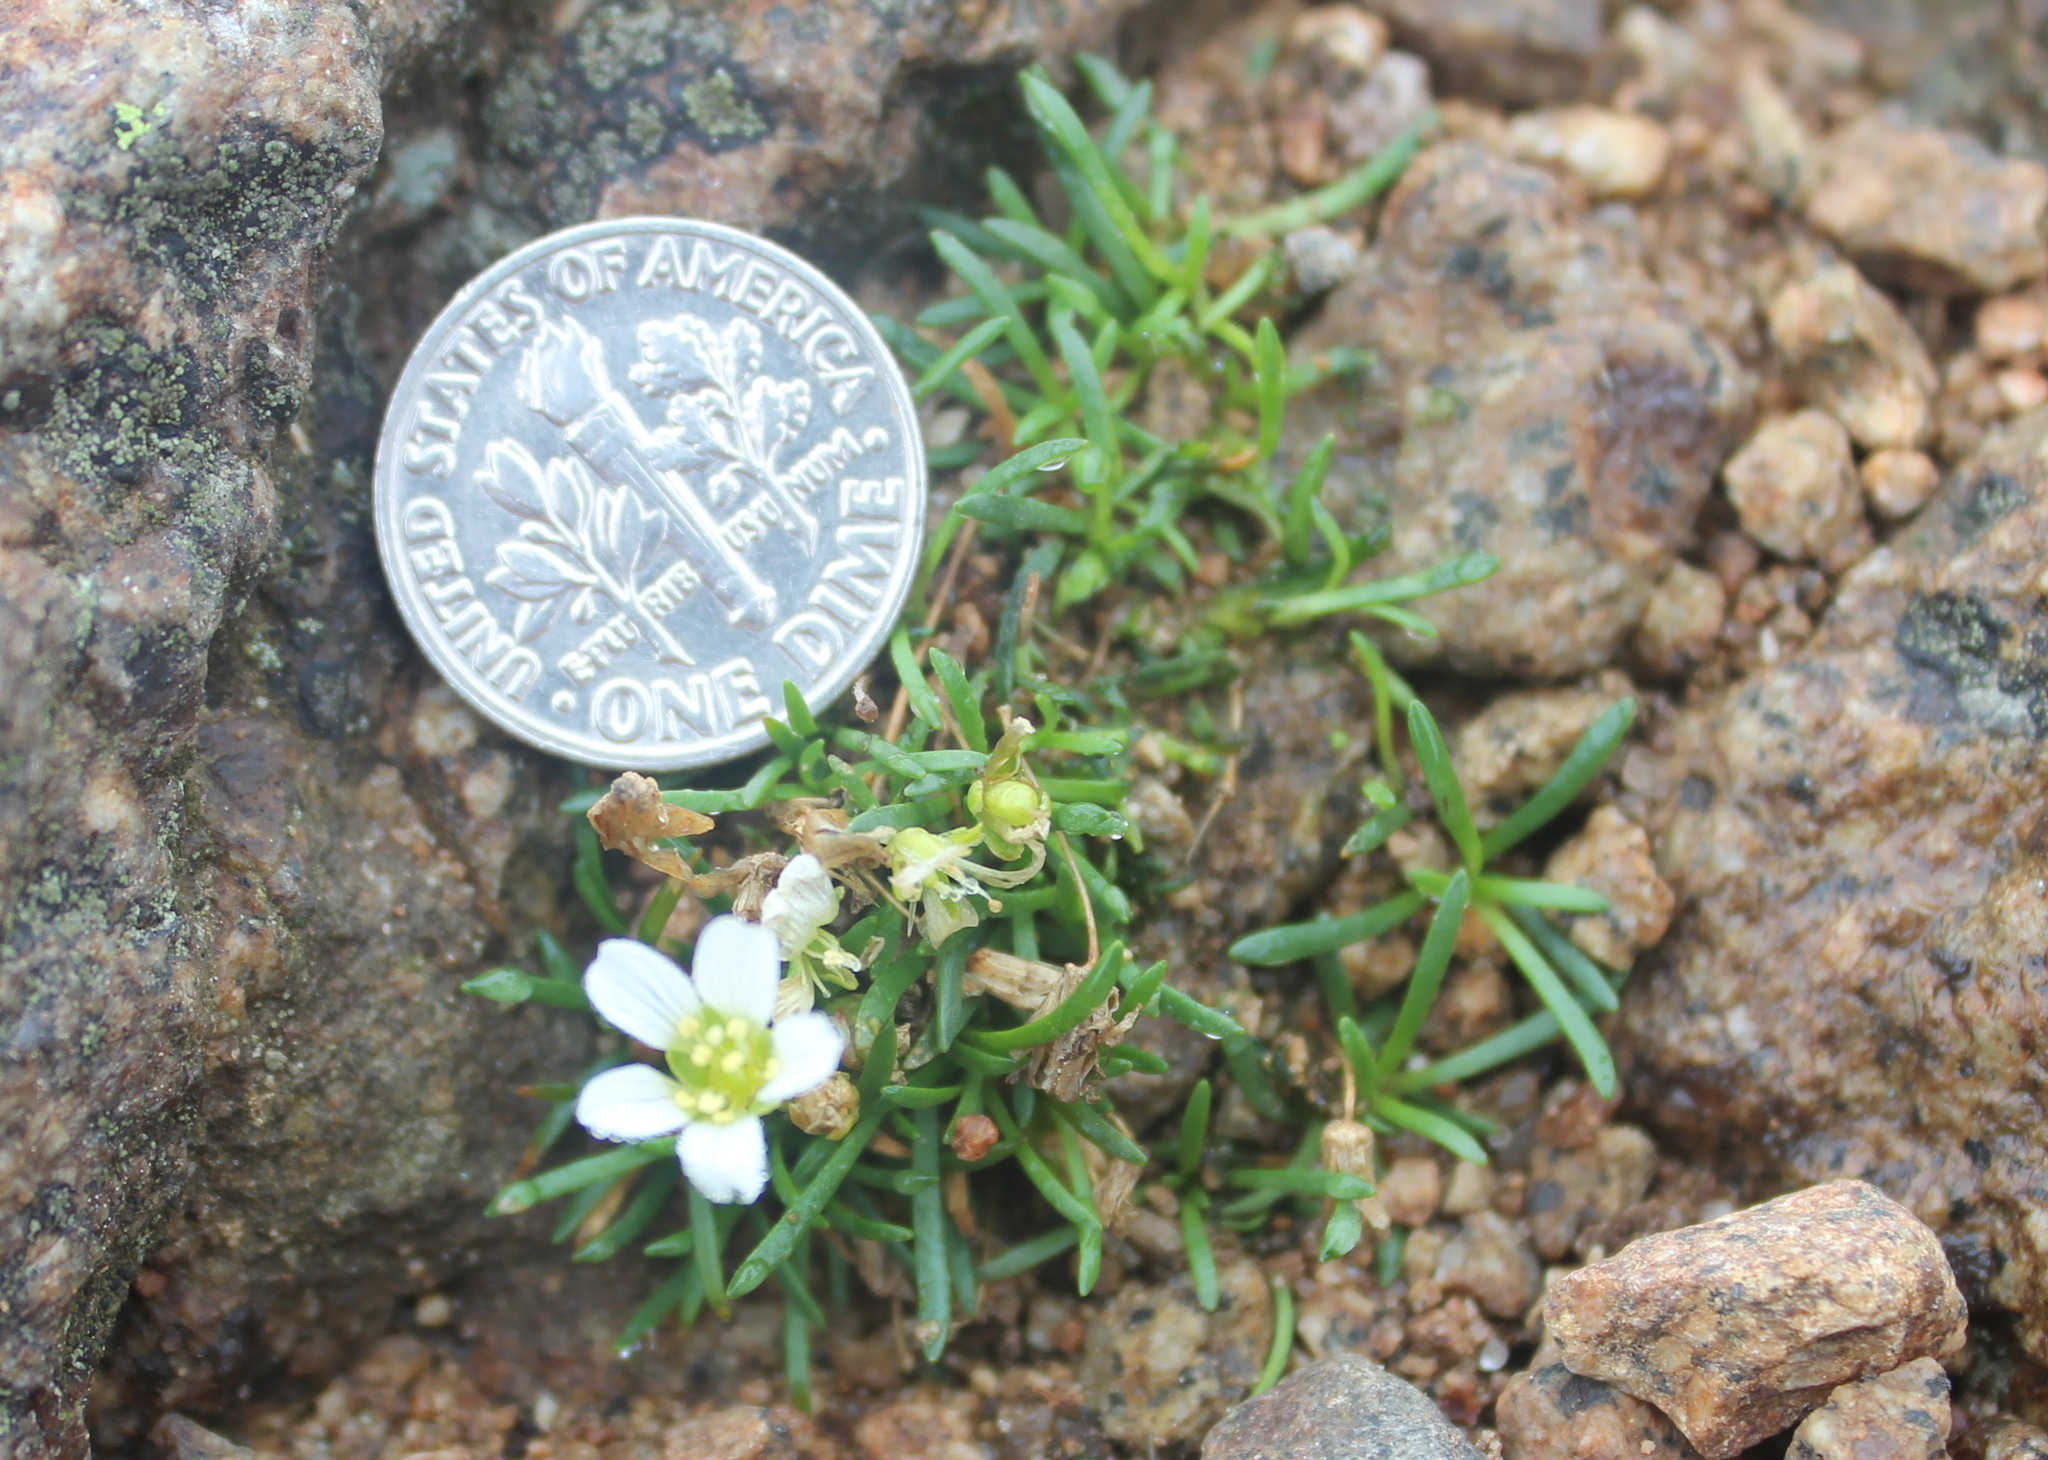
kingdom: Plantae
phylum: Tracheophyta
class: Magnoliopsida
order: Caryophyllales
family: Caryophyllaceae
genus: Geocarpon
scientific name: Geocarpon groenlandicum
